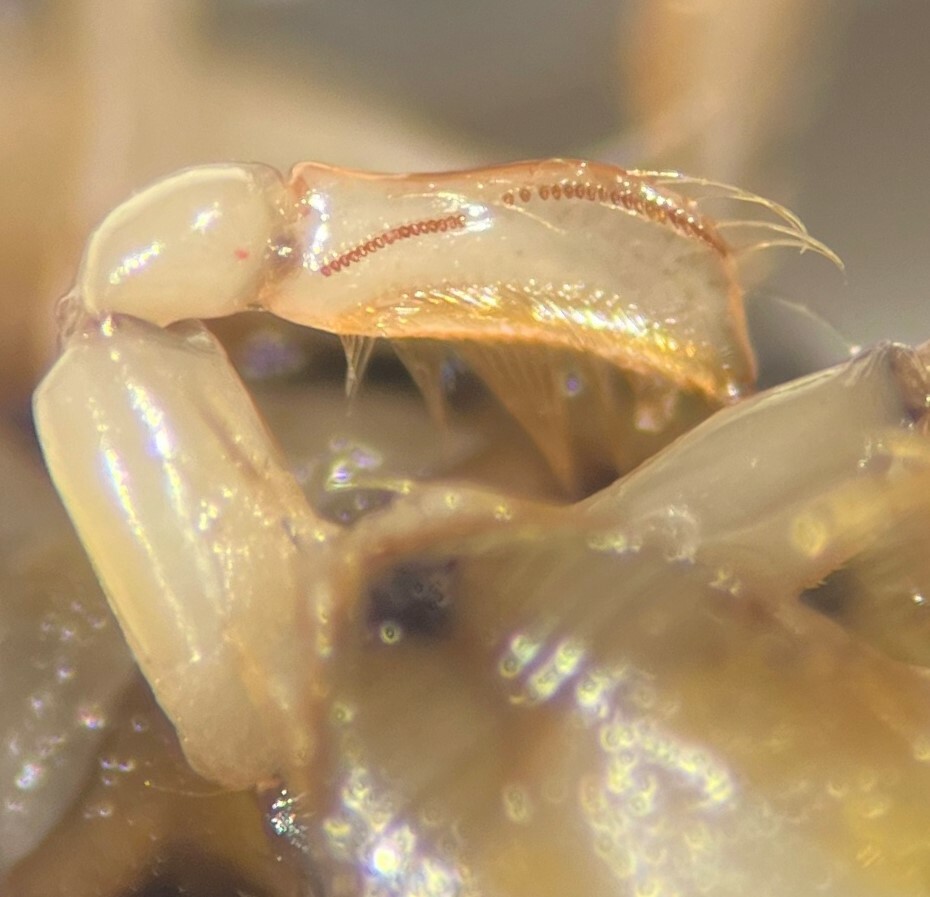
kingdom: Animalia
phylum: Arthropoda
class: Insecta
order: Hemiptera
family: Corixidae
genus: Sigara
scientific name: Sigara ornata
